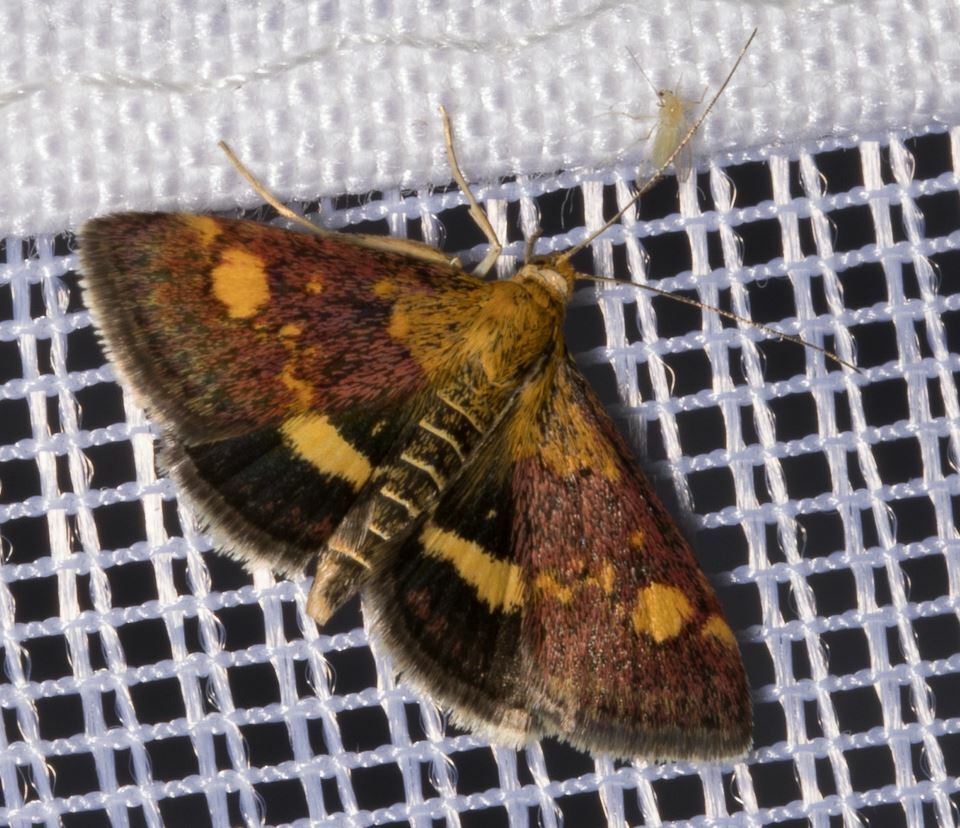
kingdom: Animalia
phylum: Arthropoda
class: Insecta
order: Lepidoptera
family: Crambidae
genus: Pyrausta
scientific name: Pyrausta aurata
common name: Small purple & gold
